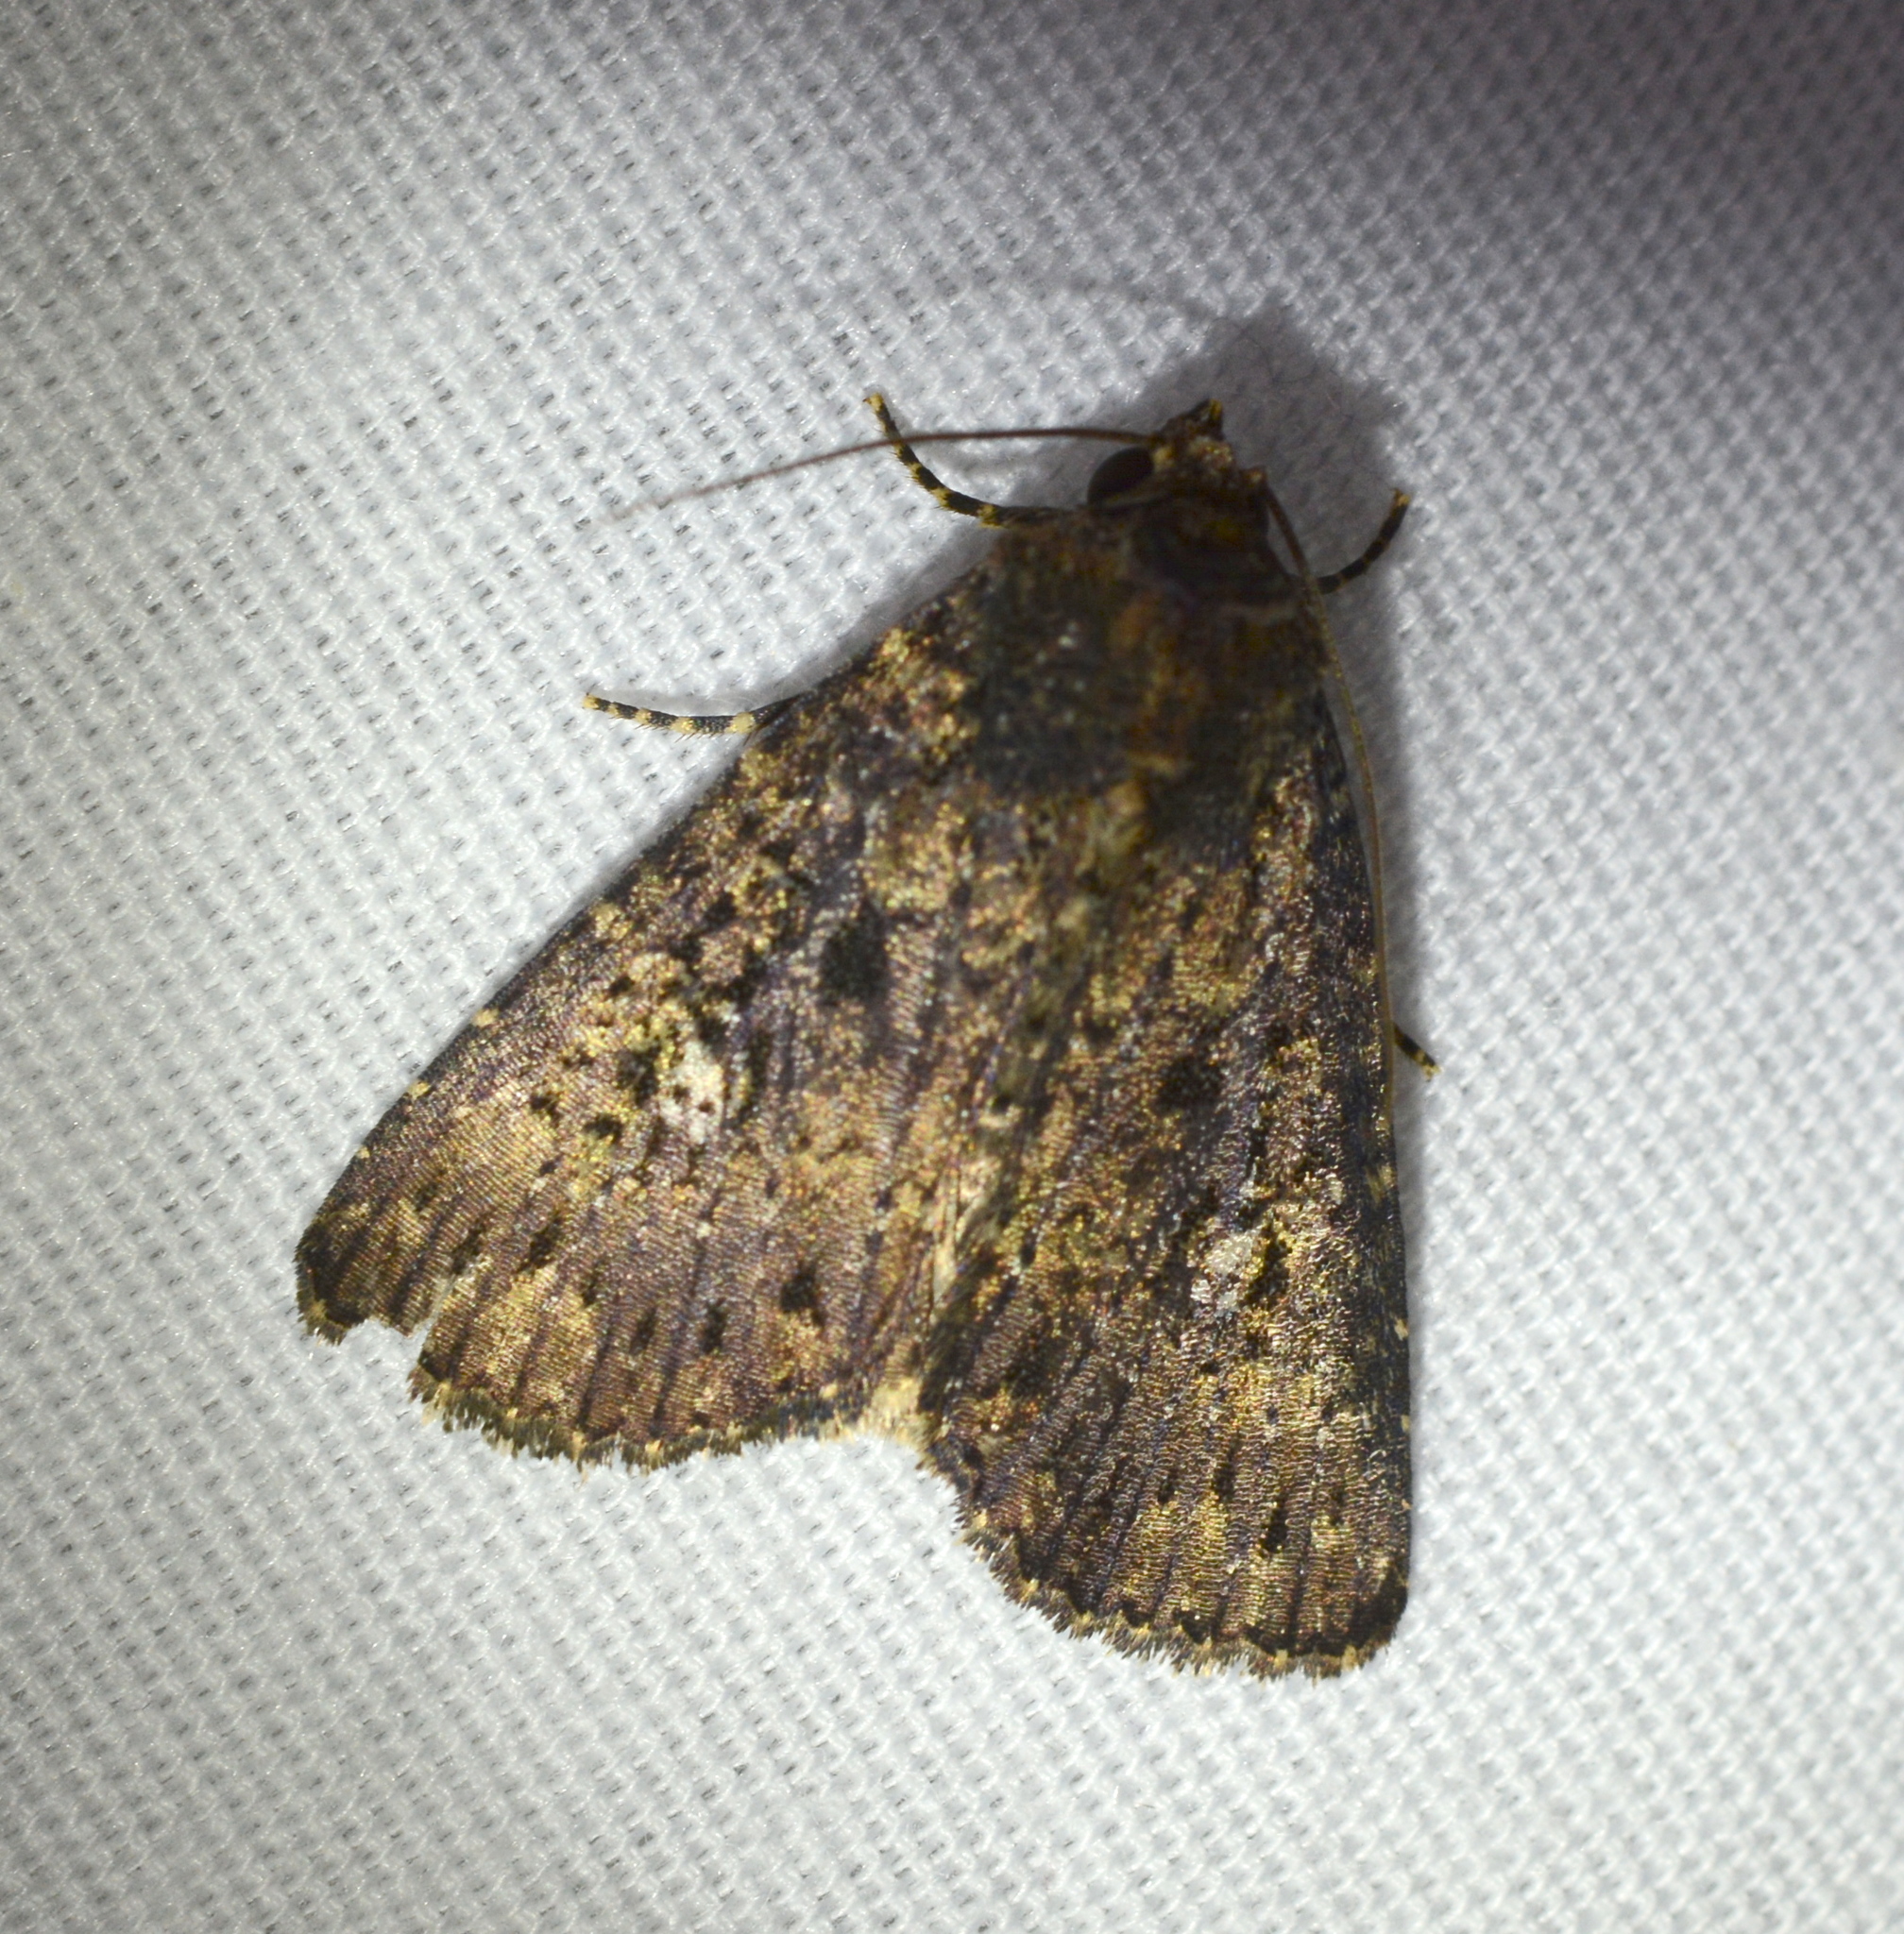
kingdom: Animalia
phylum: Arthropoda
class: Insecta
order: Lepidoptera
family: Noctuidae
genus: Condica
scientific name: Condica vecors
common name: Dusky groundling
